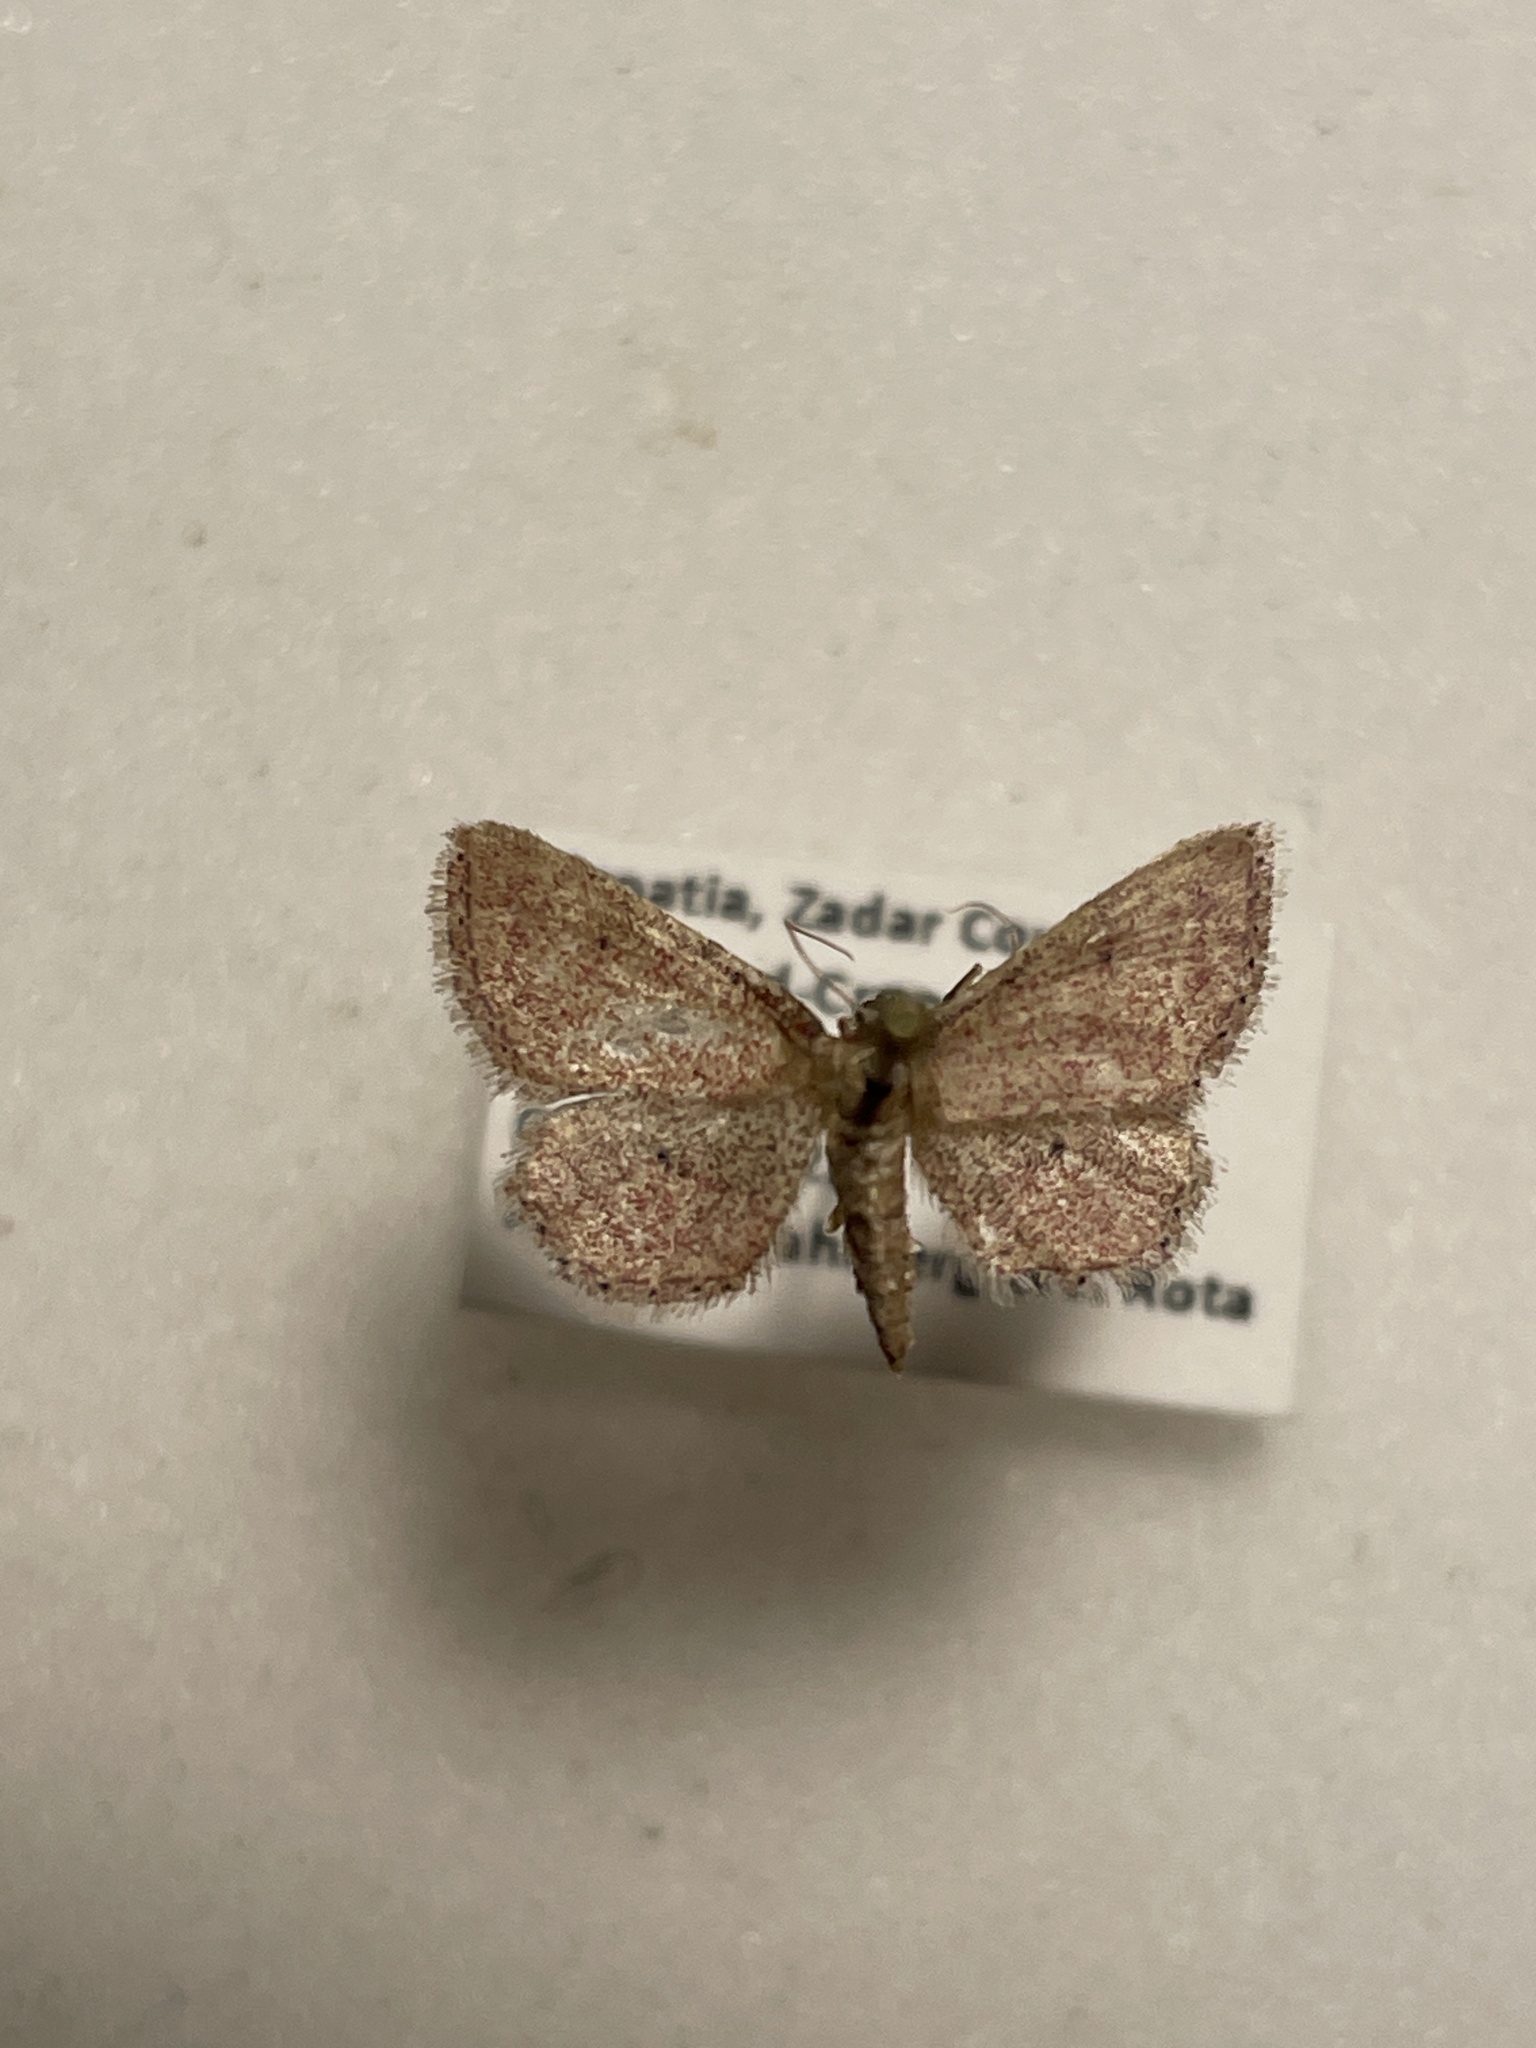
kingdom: Animalia
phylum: Arthropoda
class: Insecta
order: Lepidoptera
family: Geometridae
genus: Idaea
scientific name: Idaea infirmaria
